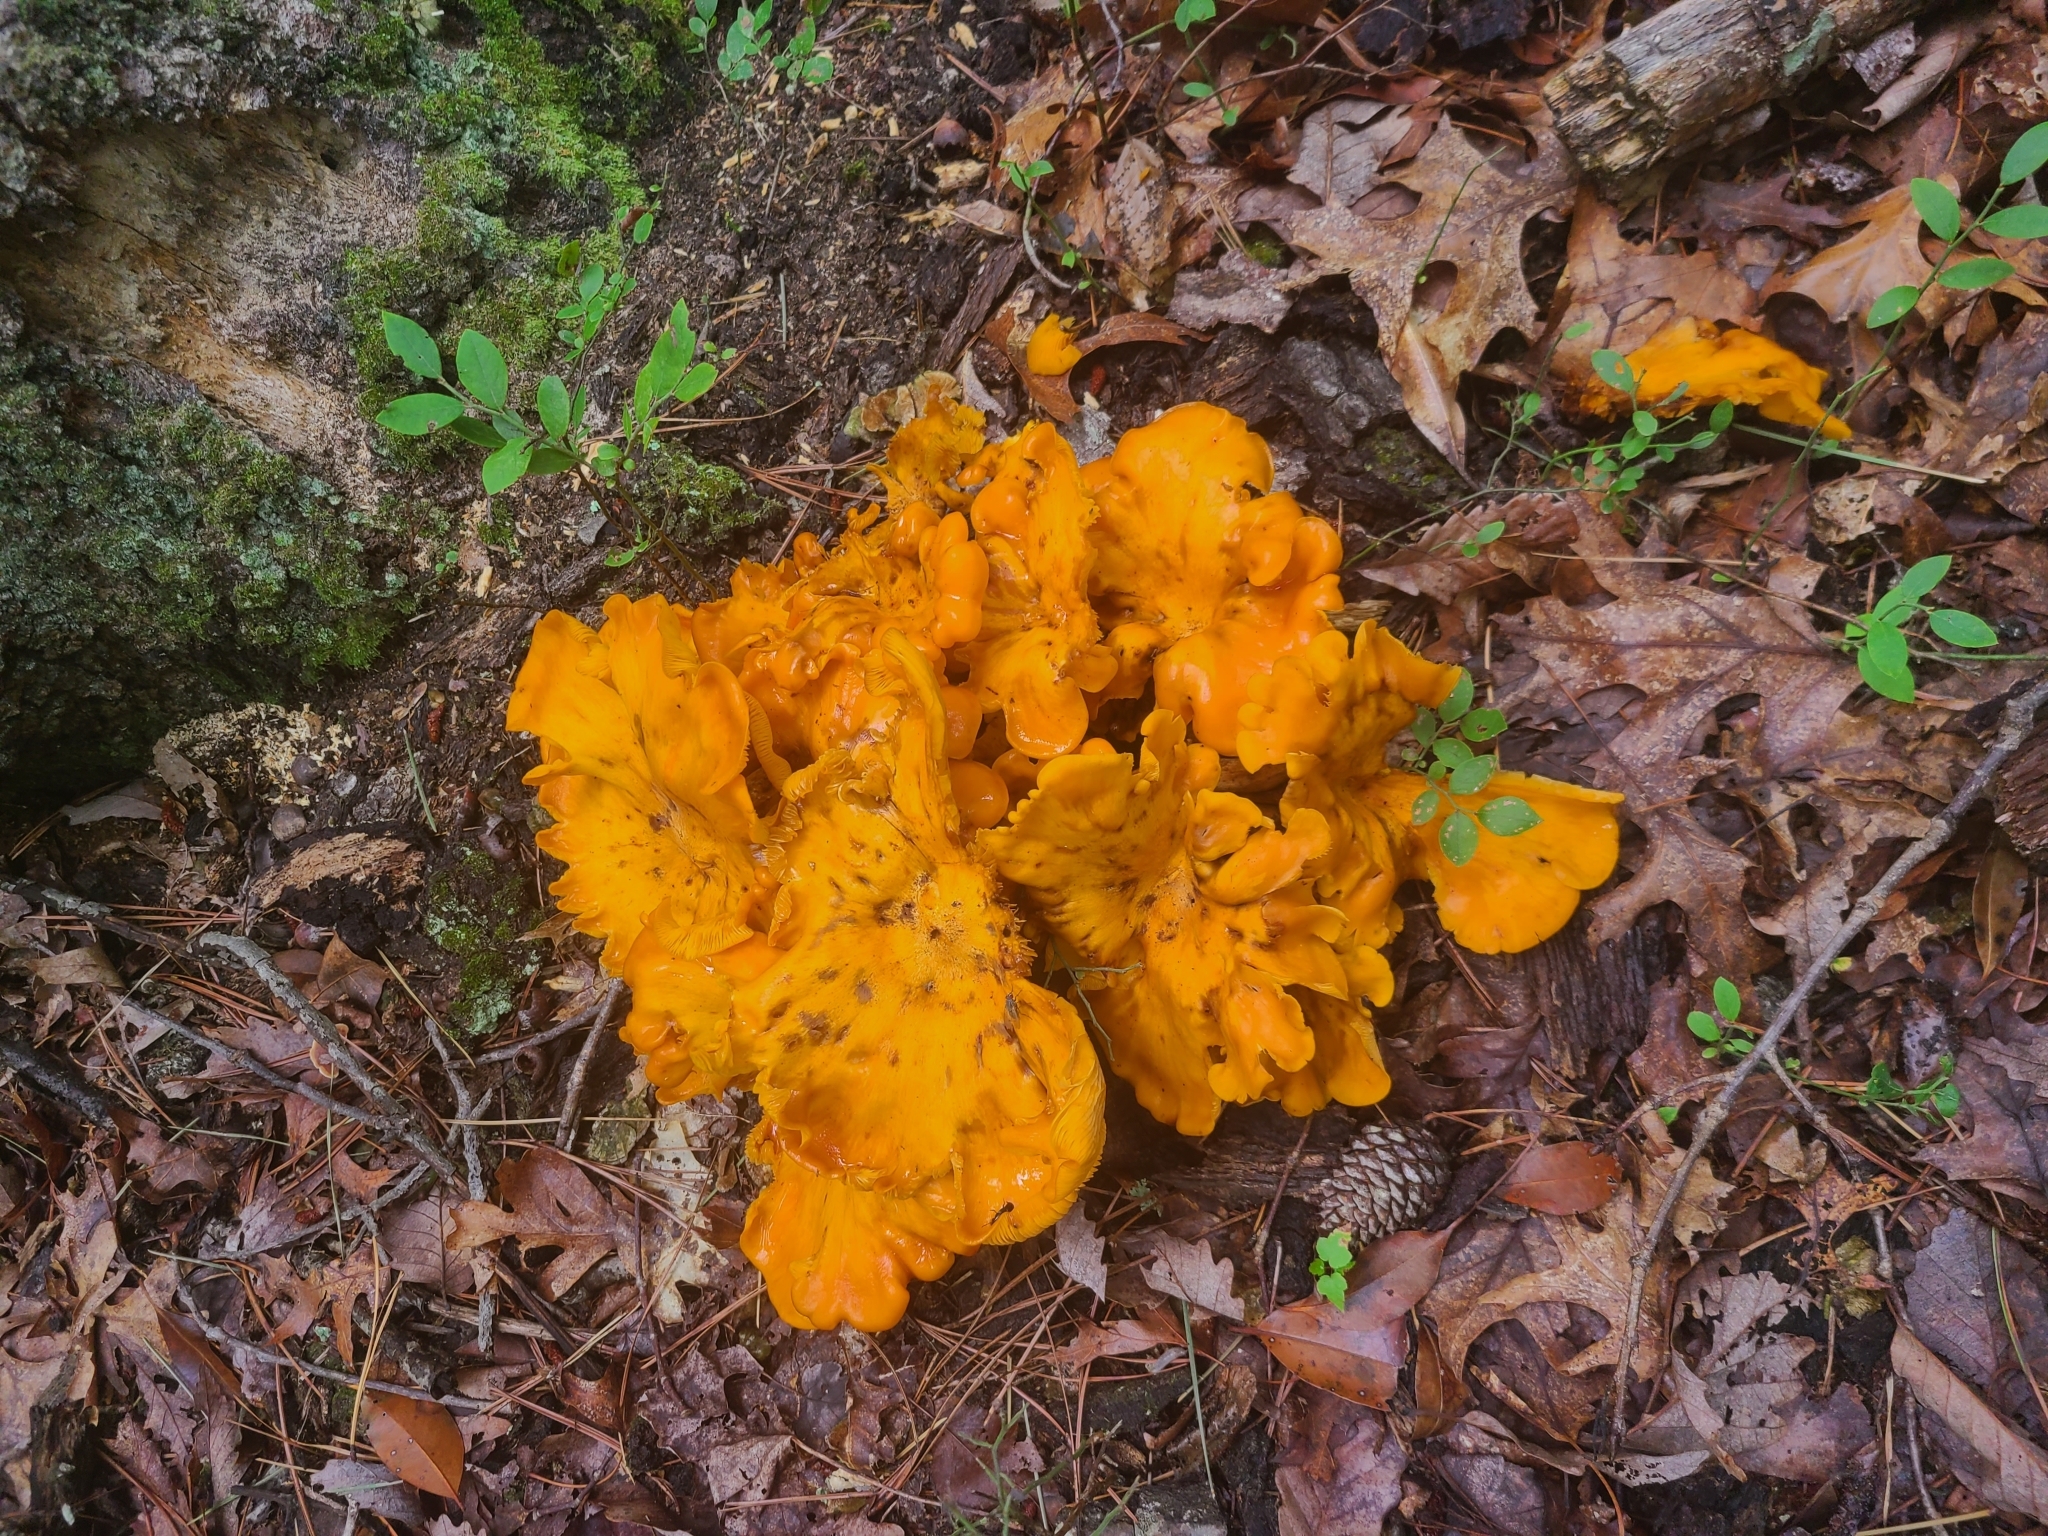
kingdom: Fungi
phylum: Basidiomycota
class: Agaricomycetes
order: Agaricales
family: Omphalotaceae
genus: Omphalotus
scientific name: Omphalotus illudens
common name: Jack o lantern
